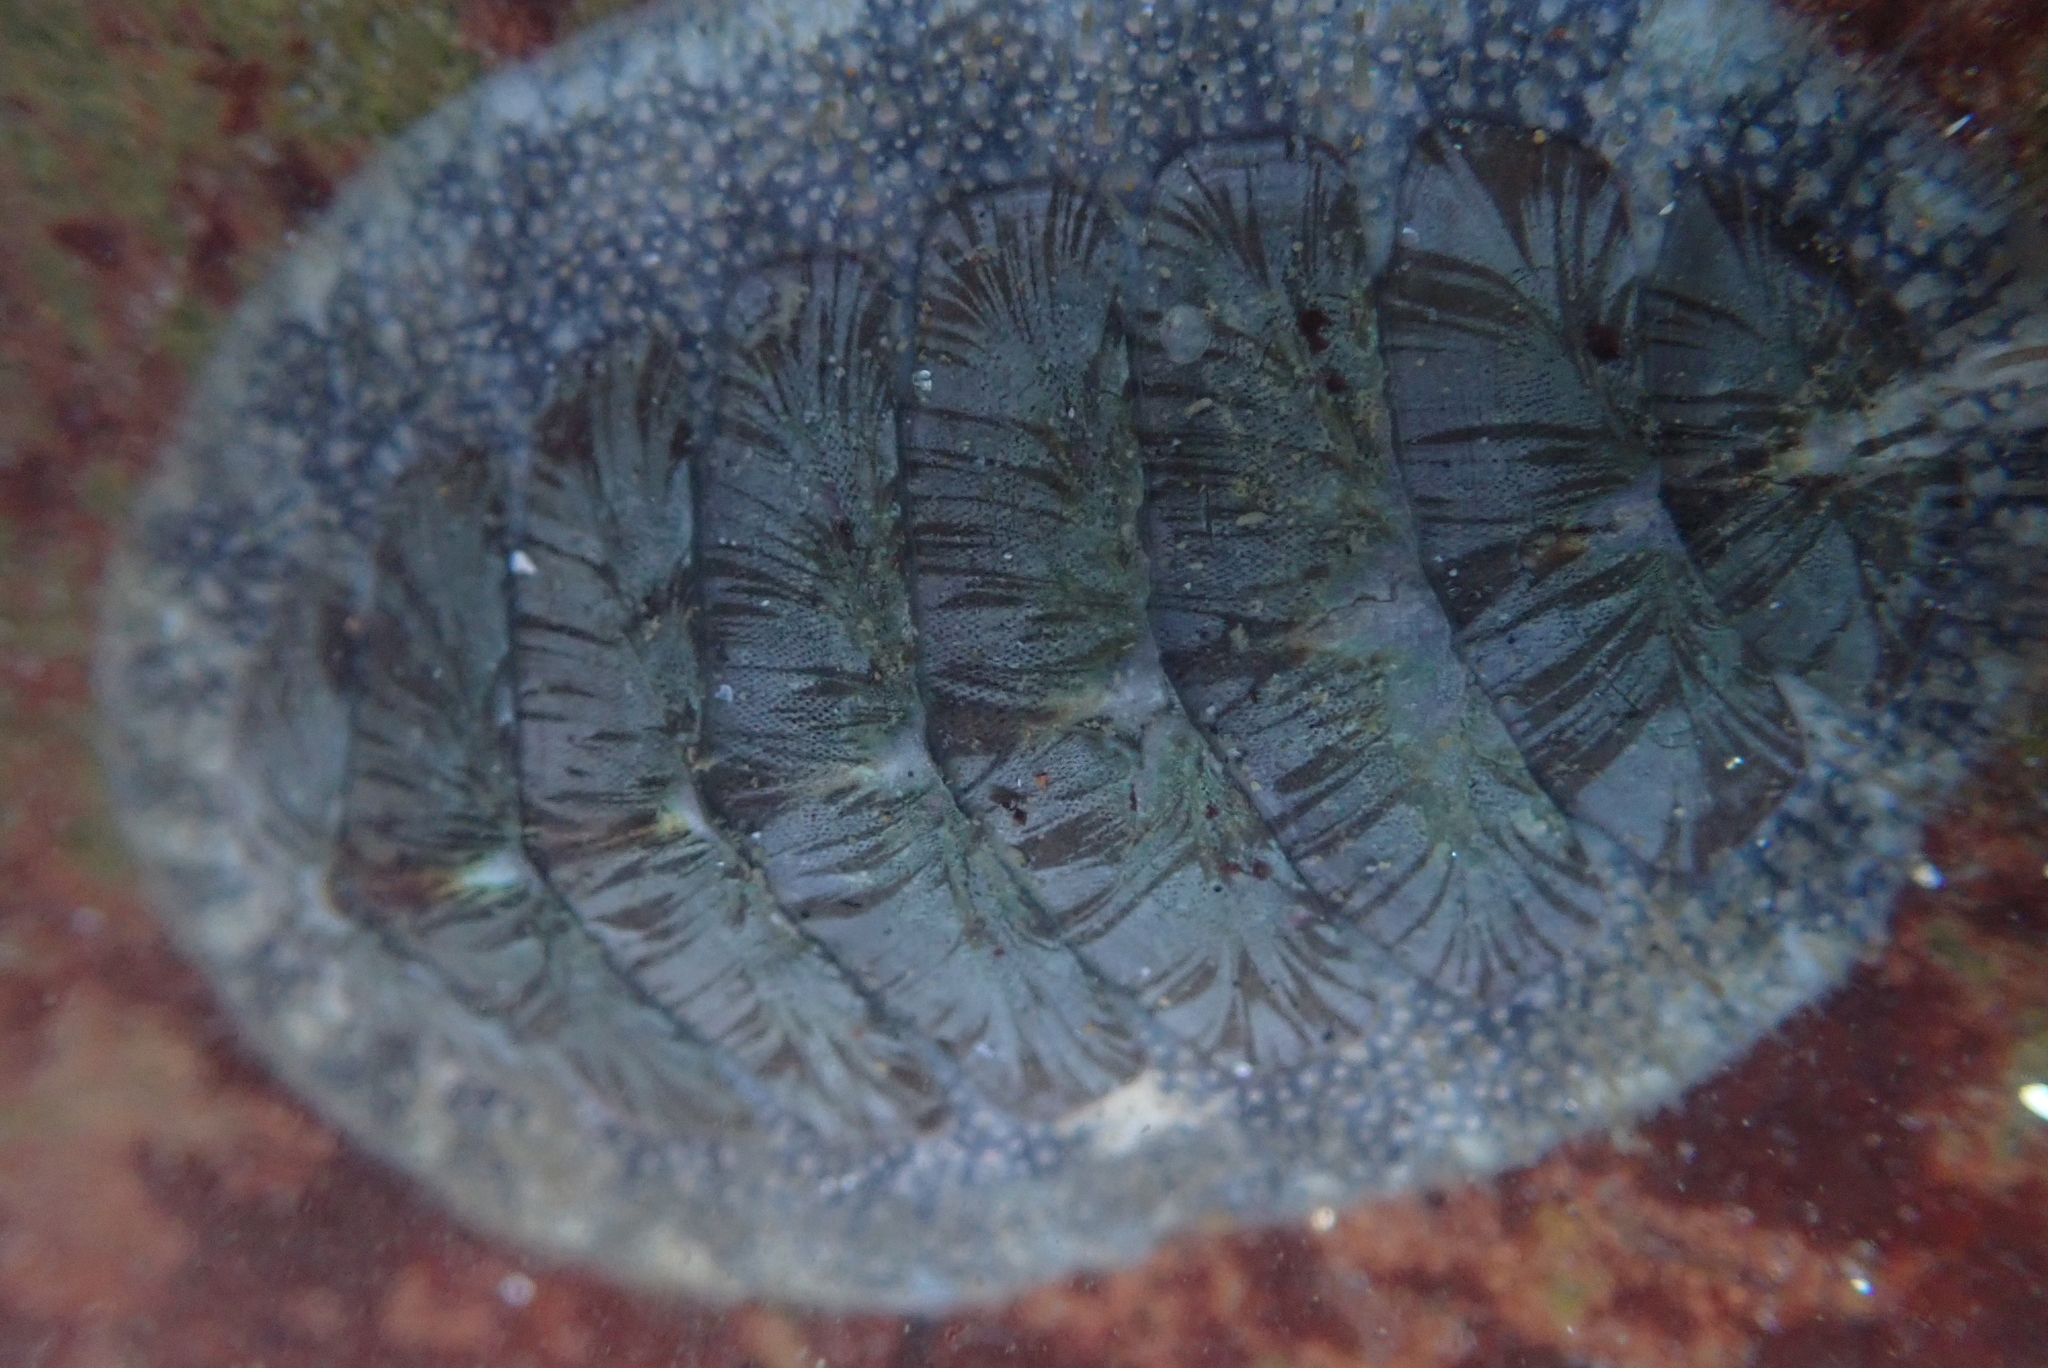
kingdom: Animalia
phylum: Mollusca
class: Polyplacophora
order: Chitonida
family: Mopaliidae
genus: Mopalia
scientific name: Mopalia lignosa
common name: Woody chiton
